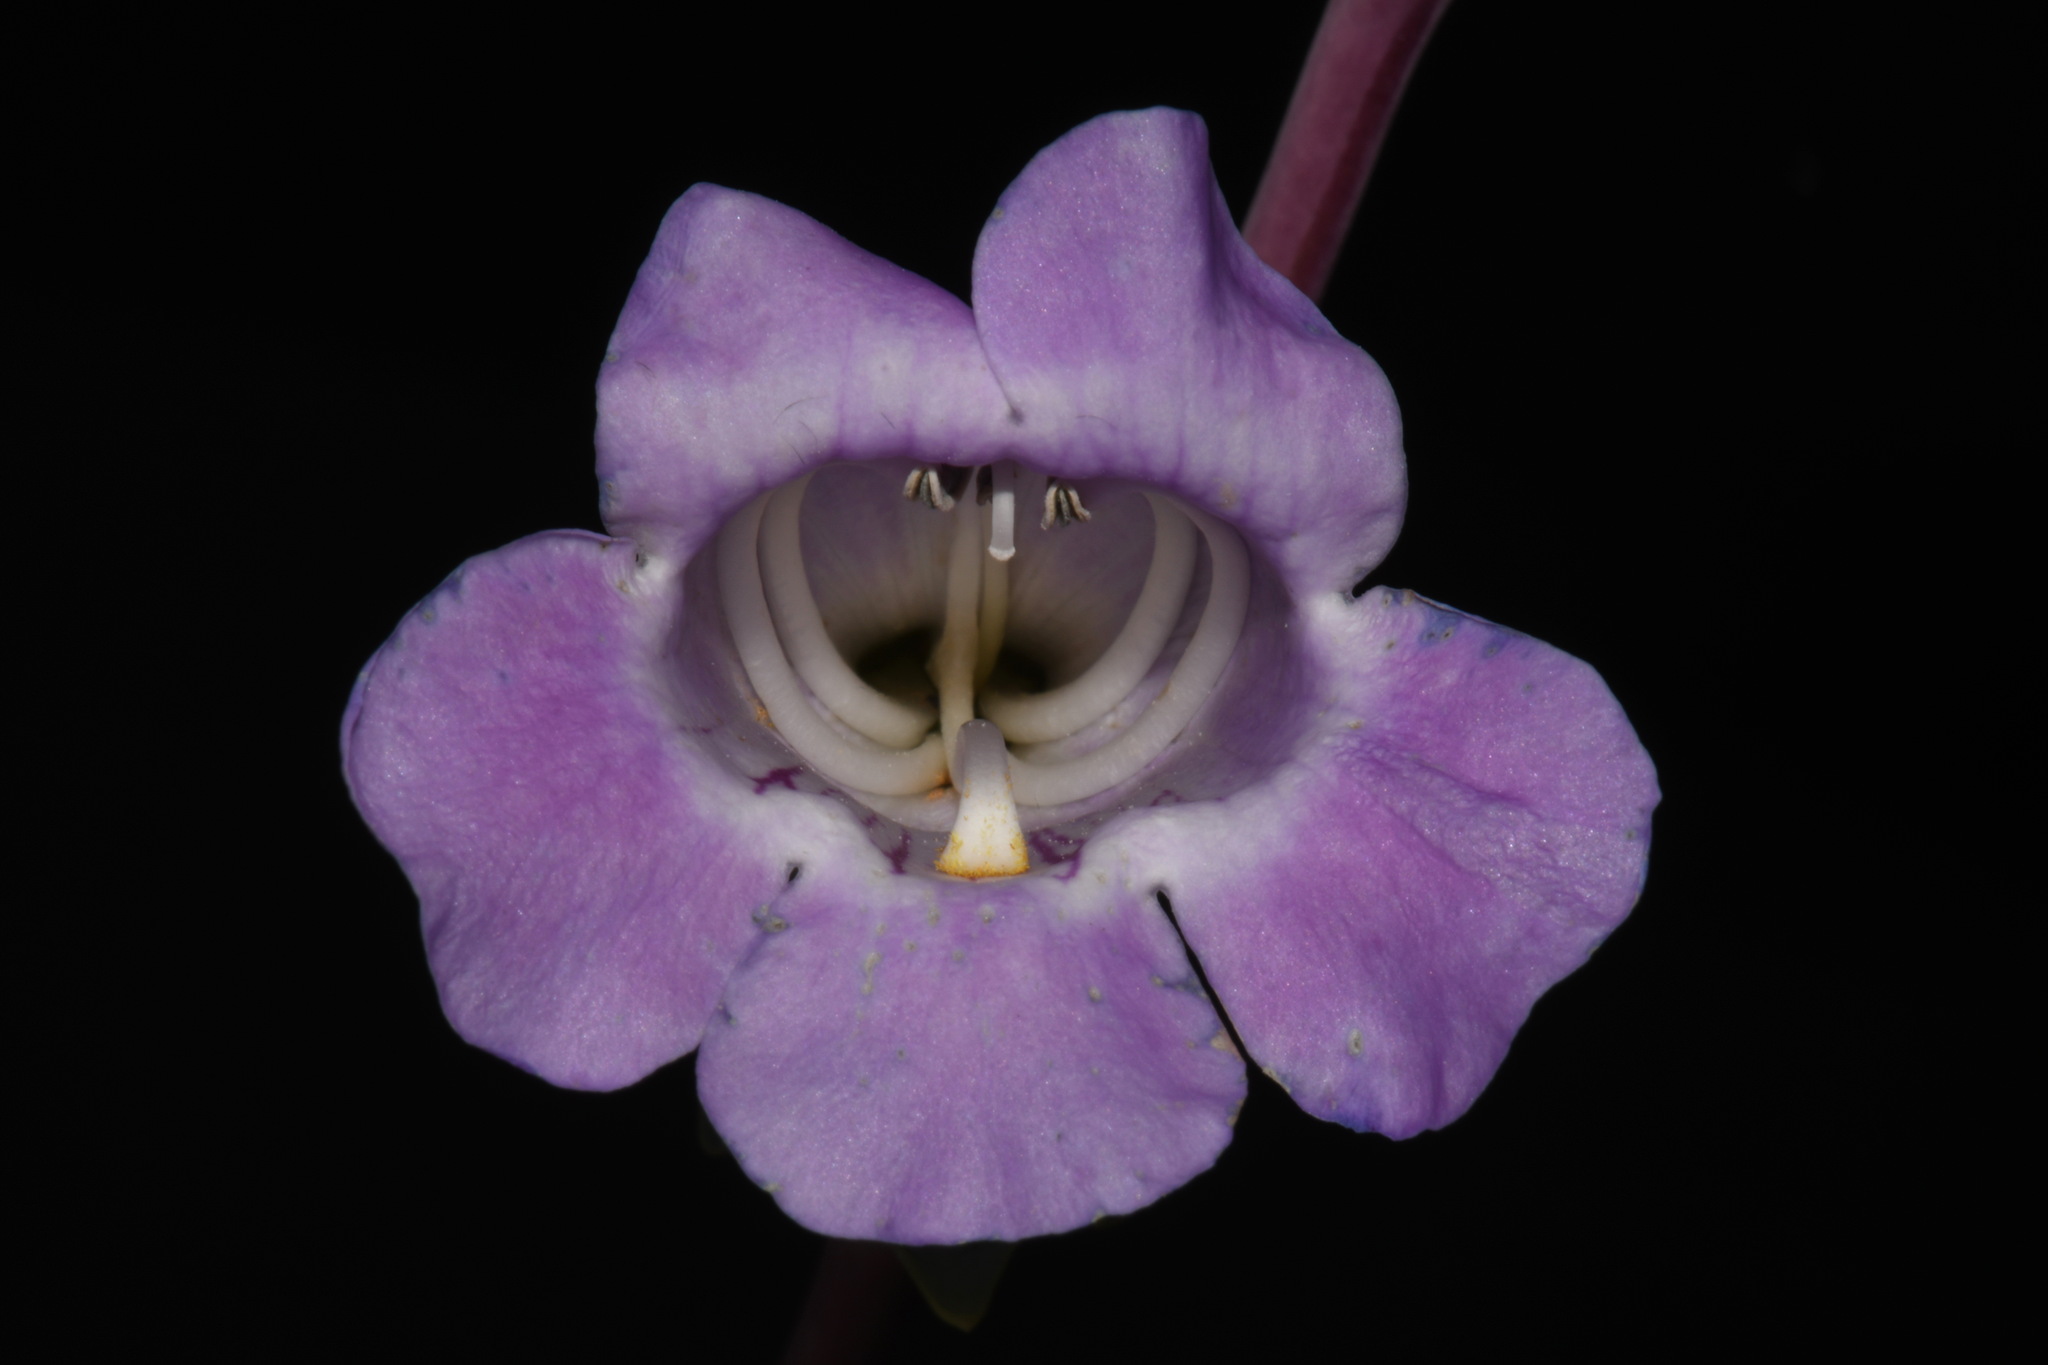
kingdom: Plantae
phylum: Tracheophyta
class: Magnoliopsida
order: Lamiales
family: Plantaginaceae
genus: Penstemon
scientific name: Penstemon
